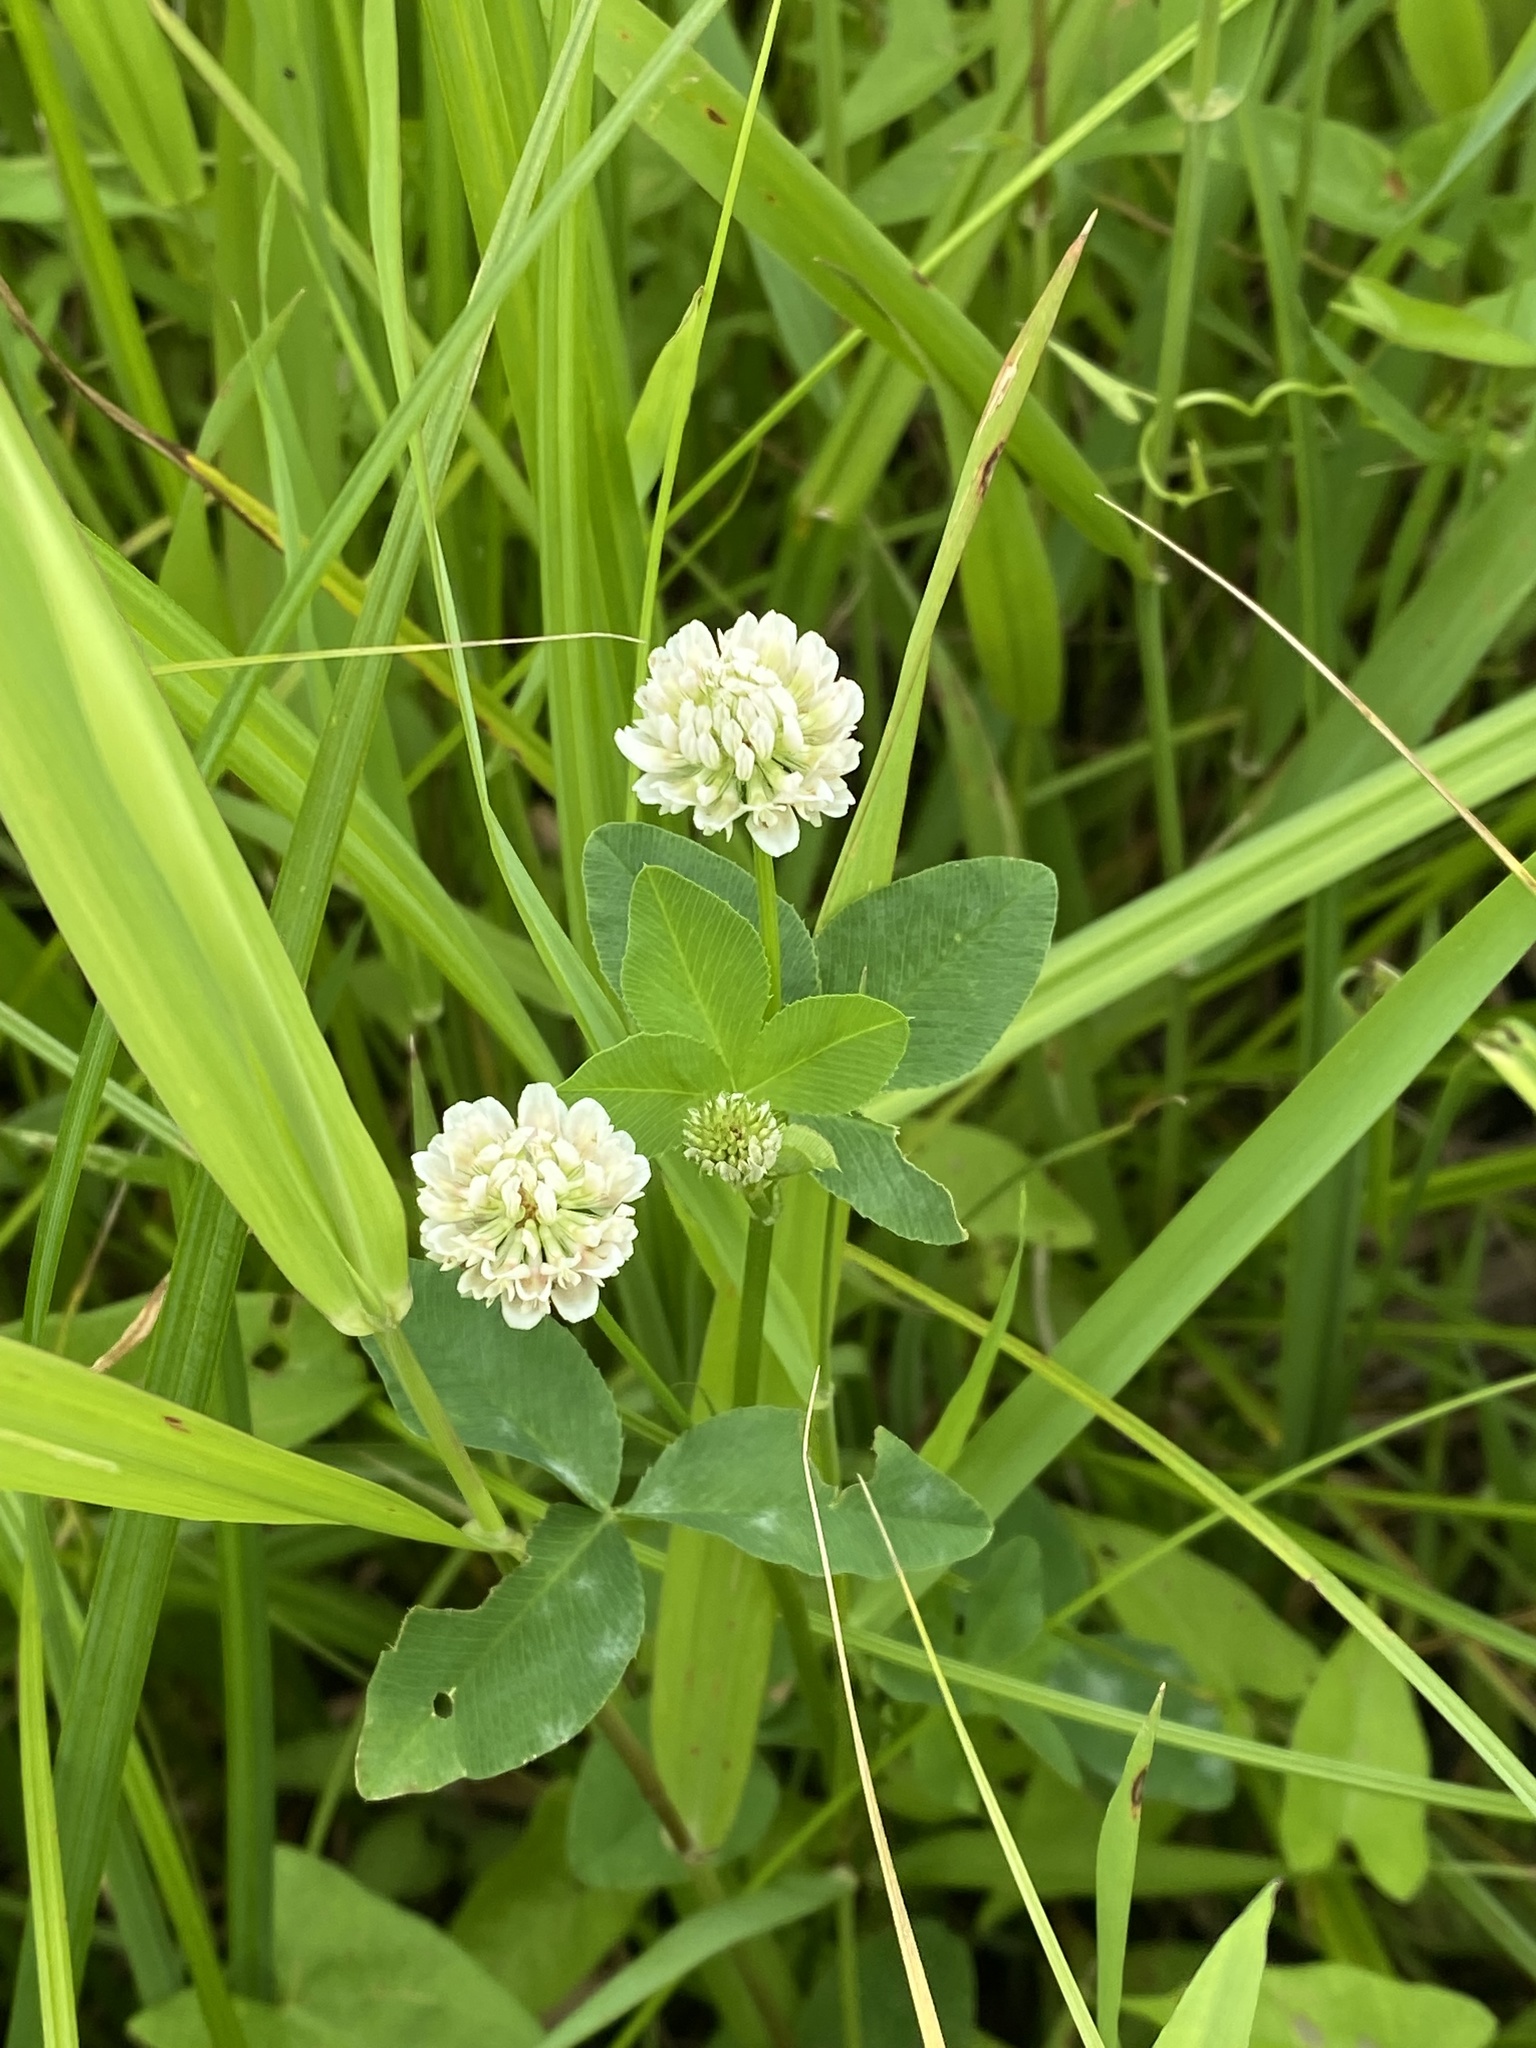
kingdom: Plantae
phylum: Tracheophyta
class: Magnoliopsida
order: Fabales
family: Fabaceae
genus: Trifolium
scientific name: Trifolium hybridum
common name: Alsike clover
